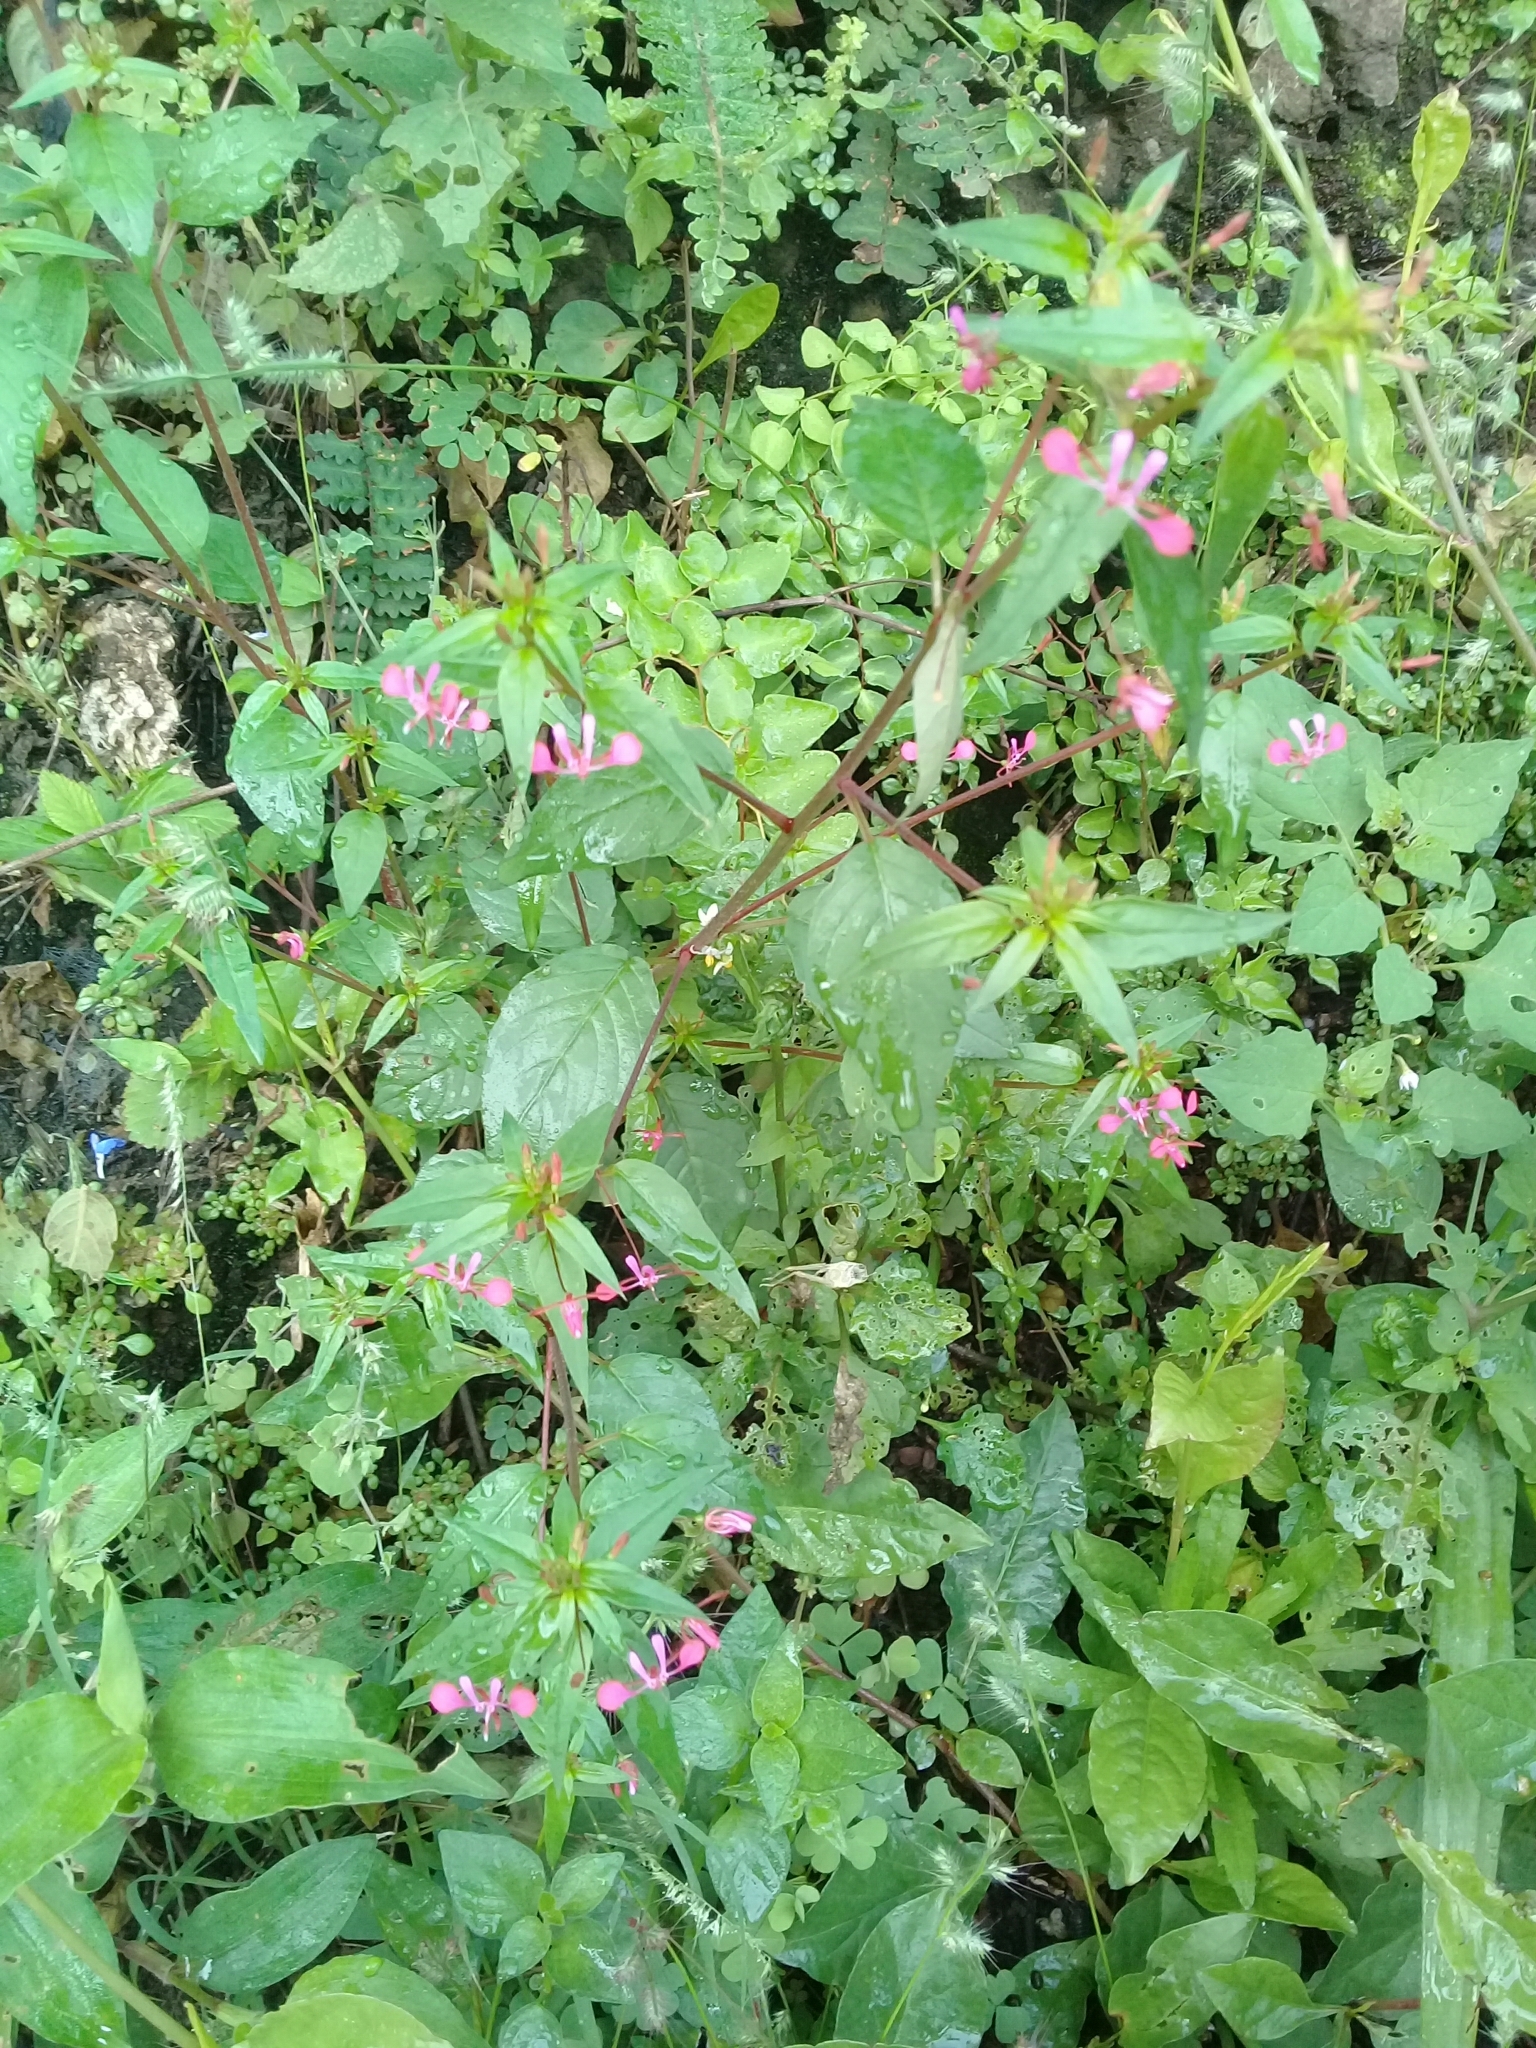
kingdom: Plantae
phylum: Tracheophyta
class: Magnoliopsida
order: Myrtales
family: Onagraceae
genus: Lopezia
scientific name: Lopezia racemosa
